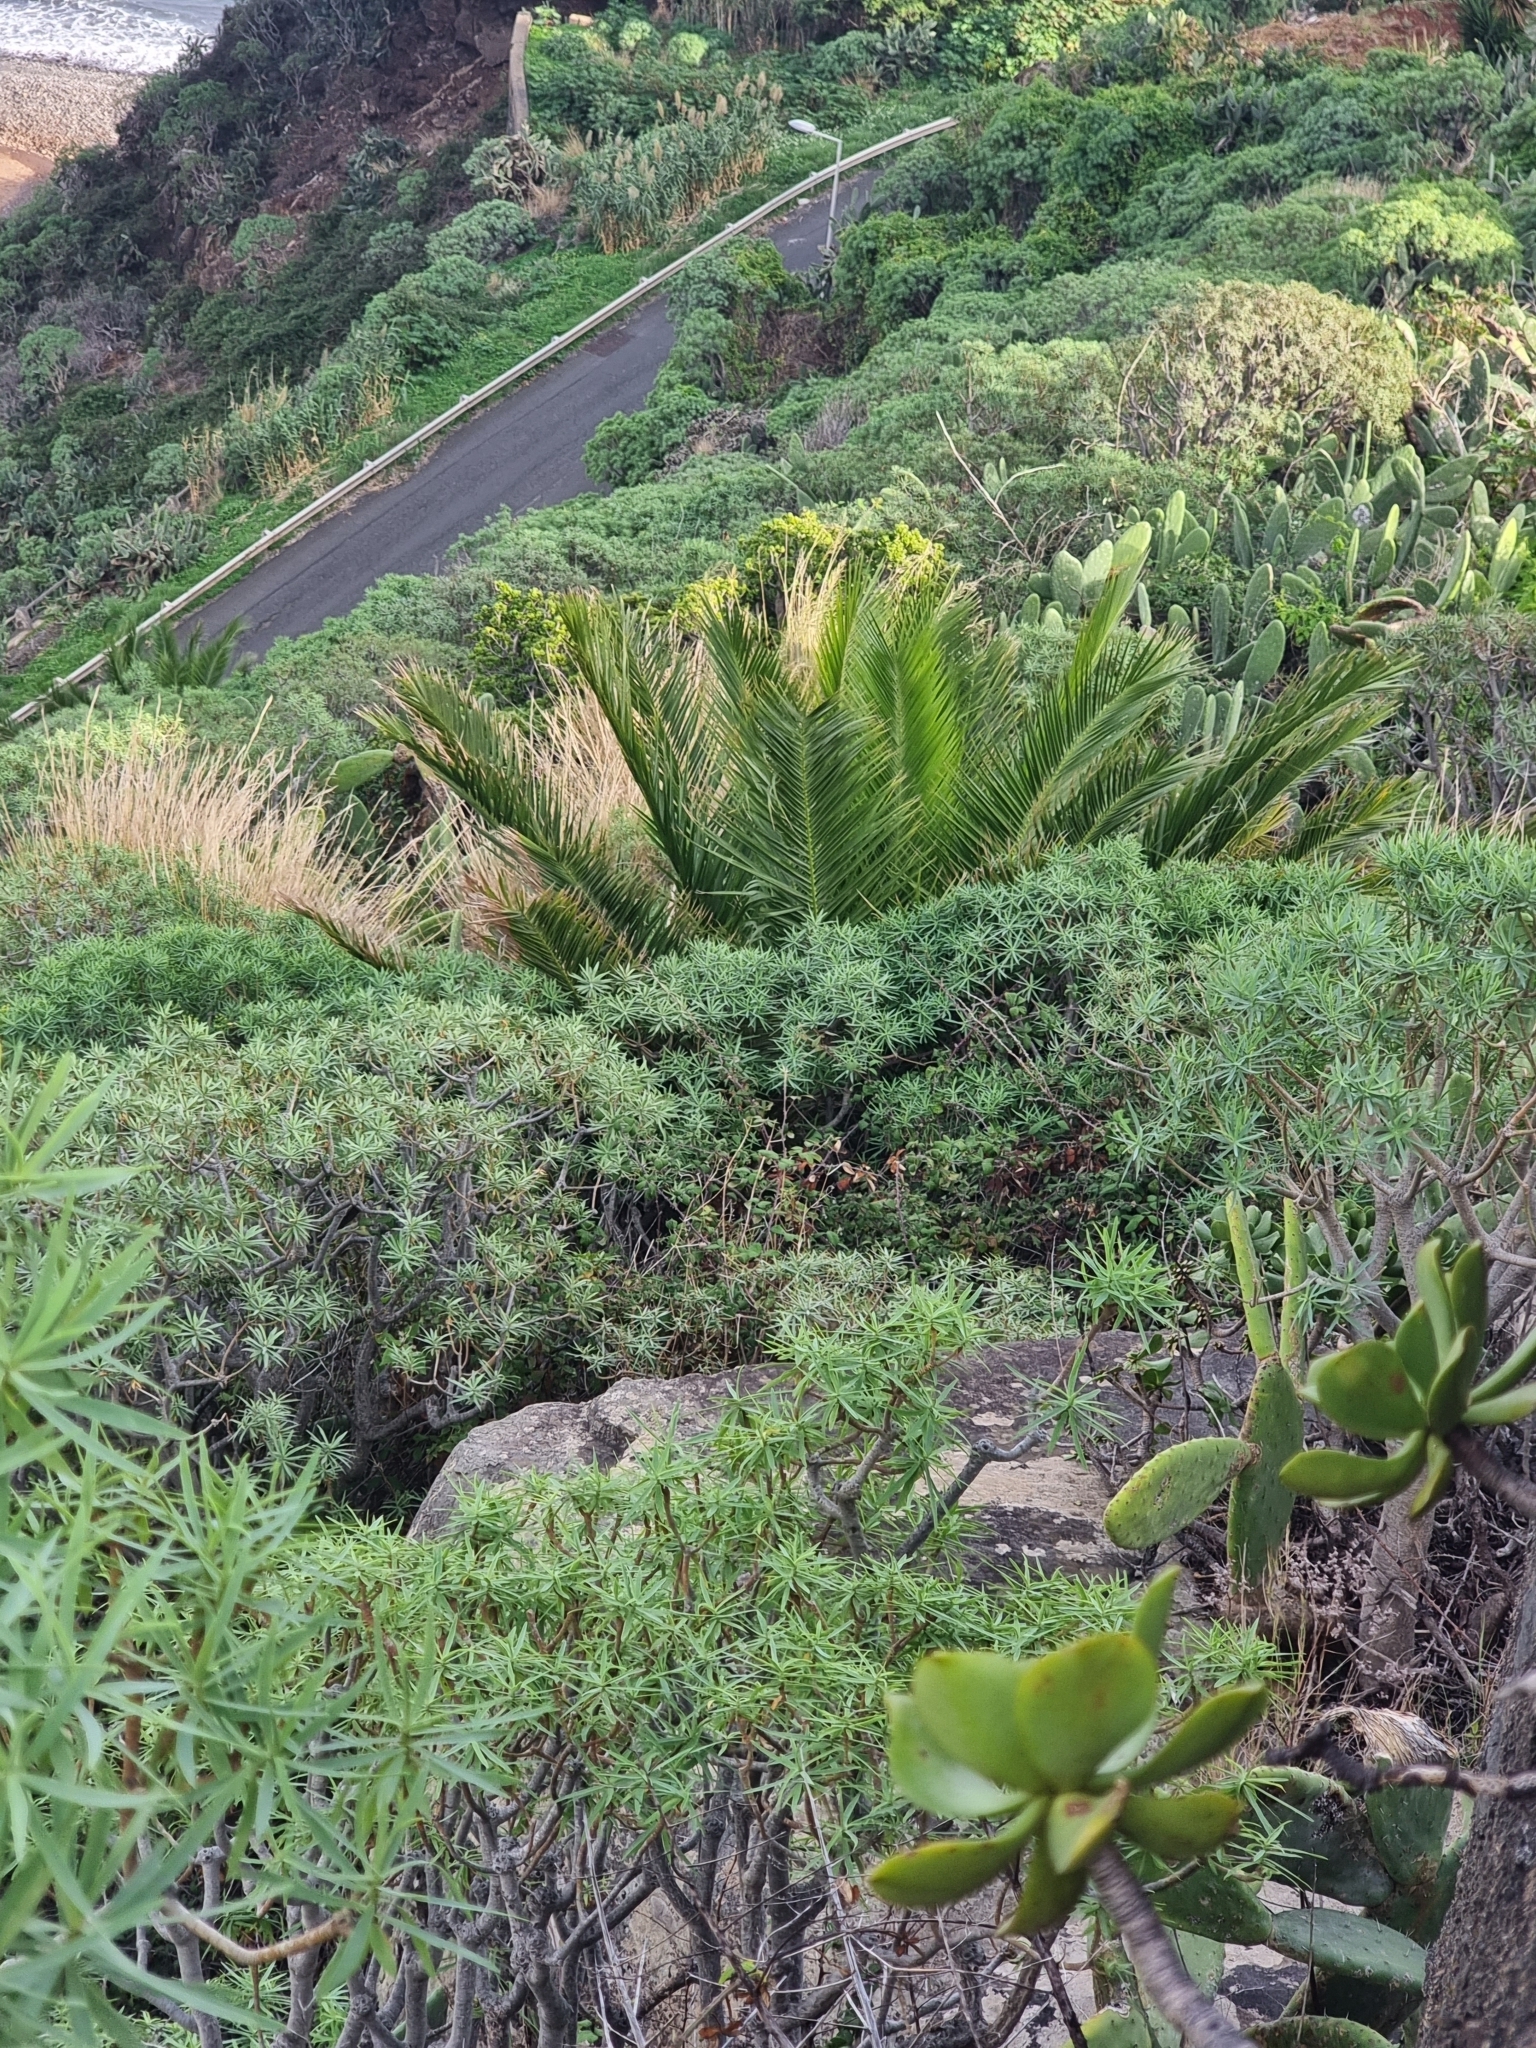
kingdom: Plantae
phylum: Tracheophyta
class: Liliopsida
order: Arecales
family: Arecaceae
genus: Phoenix
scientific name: Phoenix canariensis
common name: Canary island date palm
